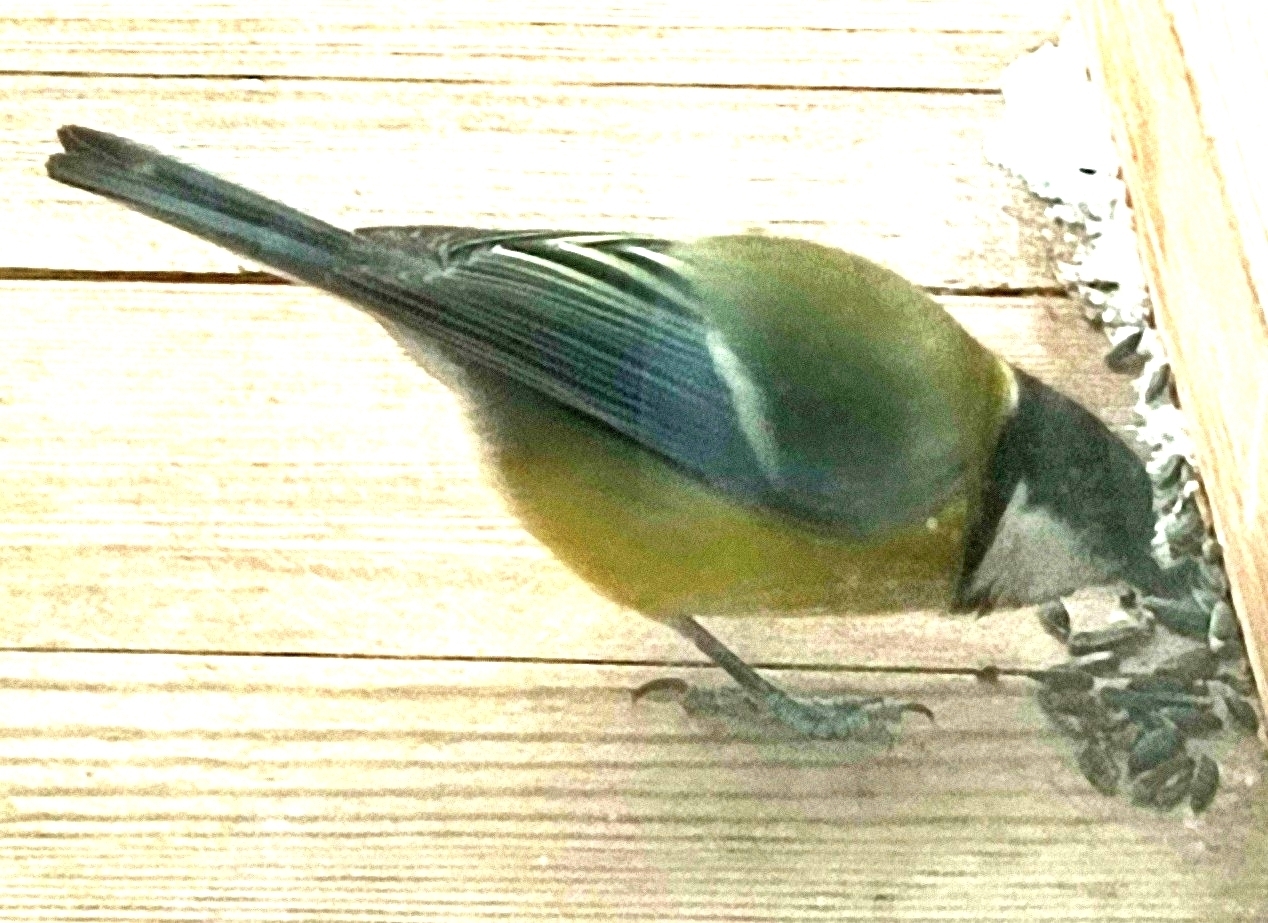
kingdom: Animalia
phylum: Chordata
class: Aves
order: Passeriformes
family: Paridae
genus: Parus
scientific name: Parus major
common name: Great tit
